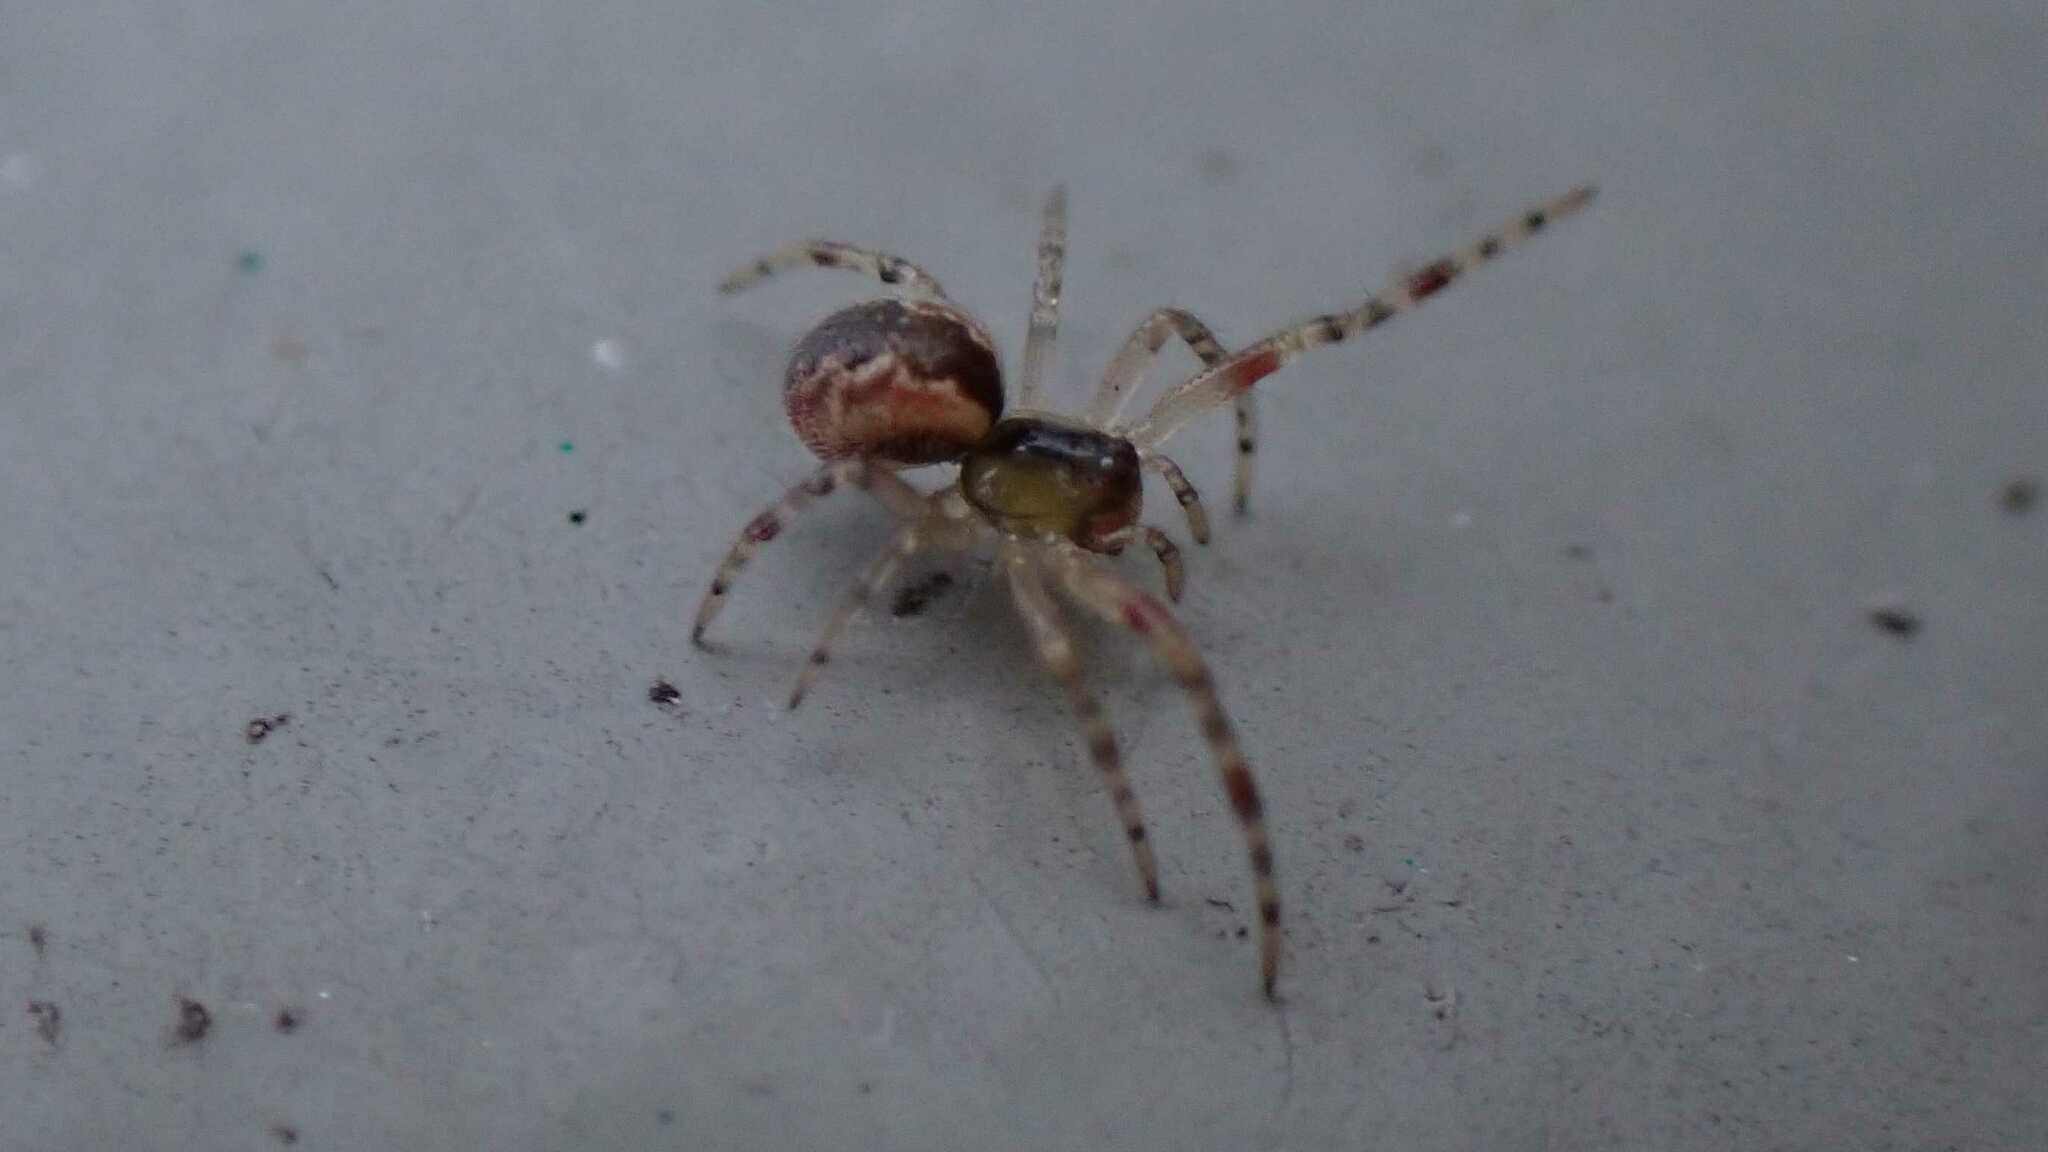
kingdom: Animalia
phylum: Arthropoda
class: Arachnida
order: Araneae
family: Theridiidae
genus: Anelosimus
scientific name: Anelosimus vittatus
